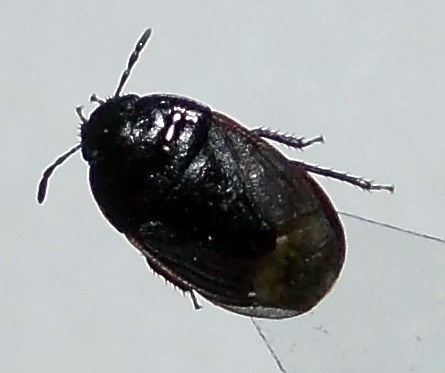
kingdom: Animalia
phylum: Arthropoda
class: Insecta
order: Hemiptera
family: Cydnidae
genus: Ochetostethus
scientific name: Ochetostethus opacus
